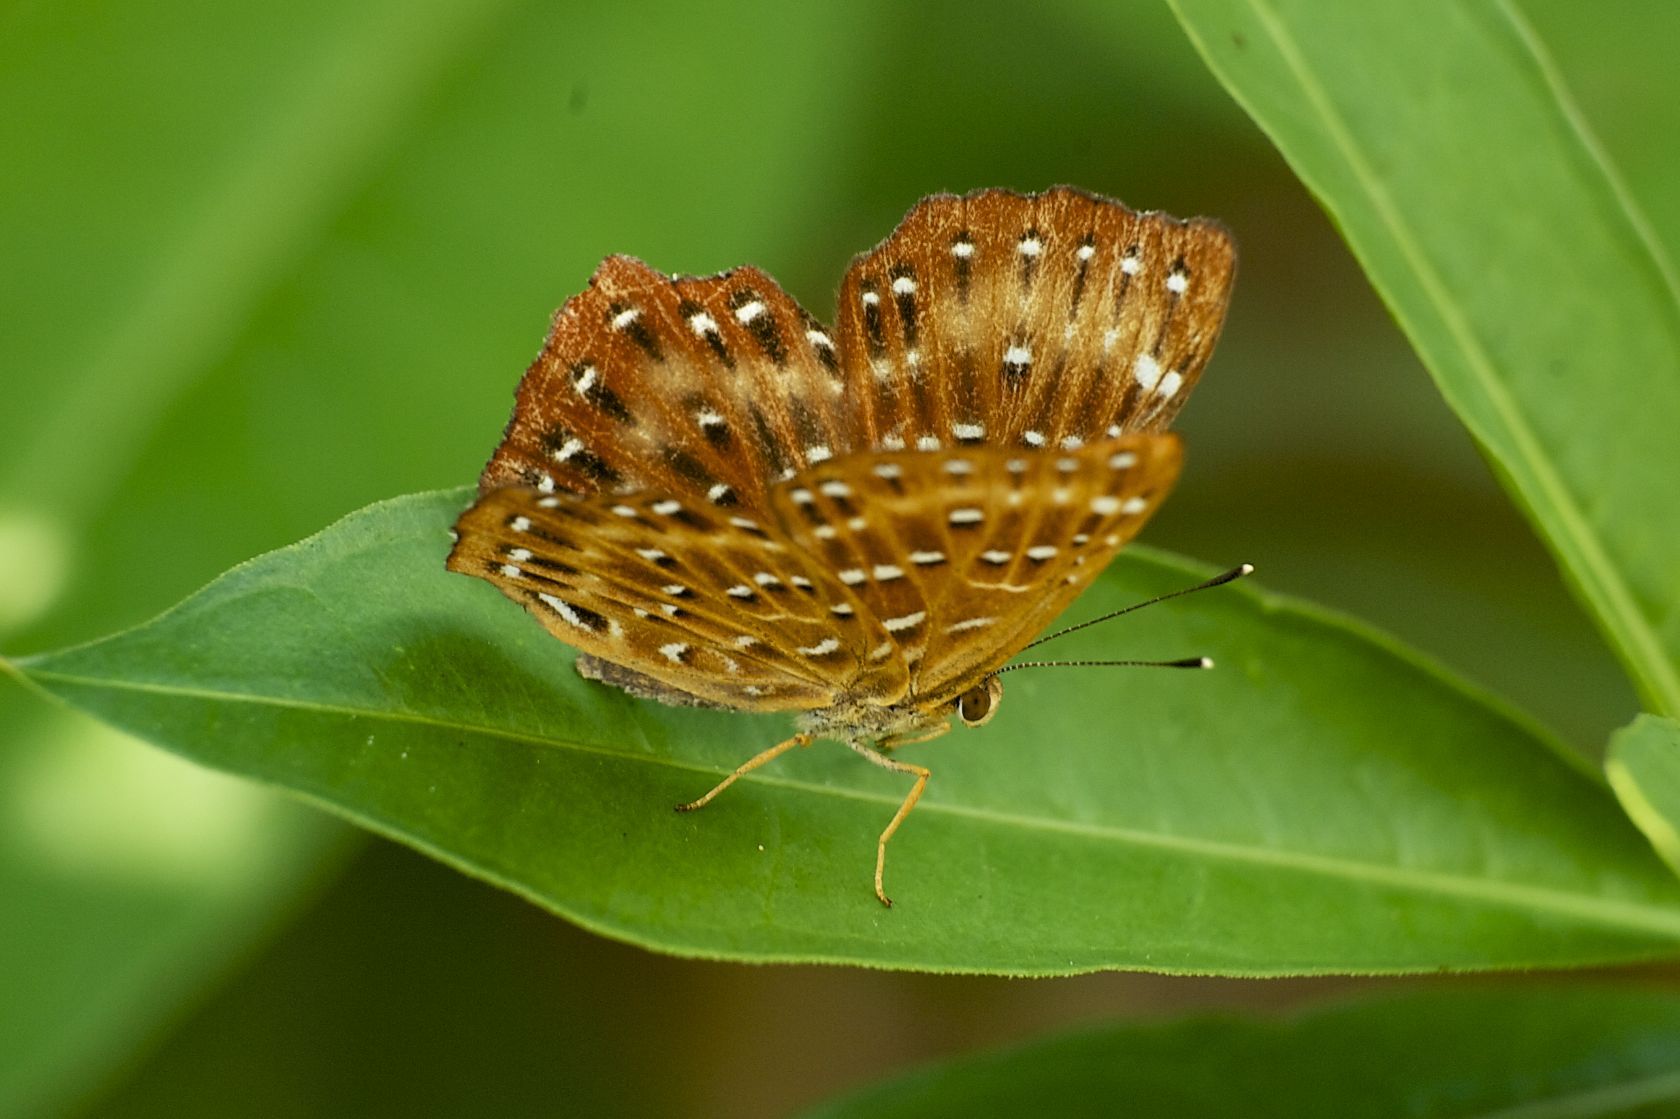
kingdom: Animalia
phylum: Arthropoda
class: Insecta
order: Lepidoptera
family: Riodinidae
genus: Zemeros
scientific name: Zemeros flegyas
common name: Punchinello
